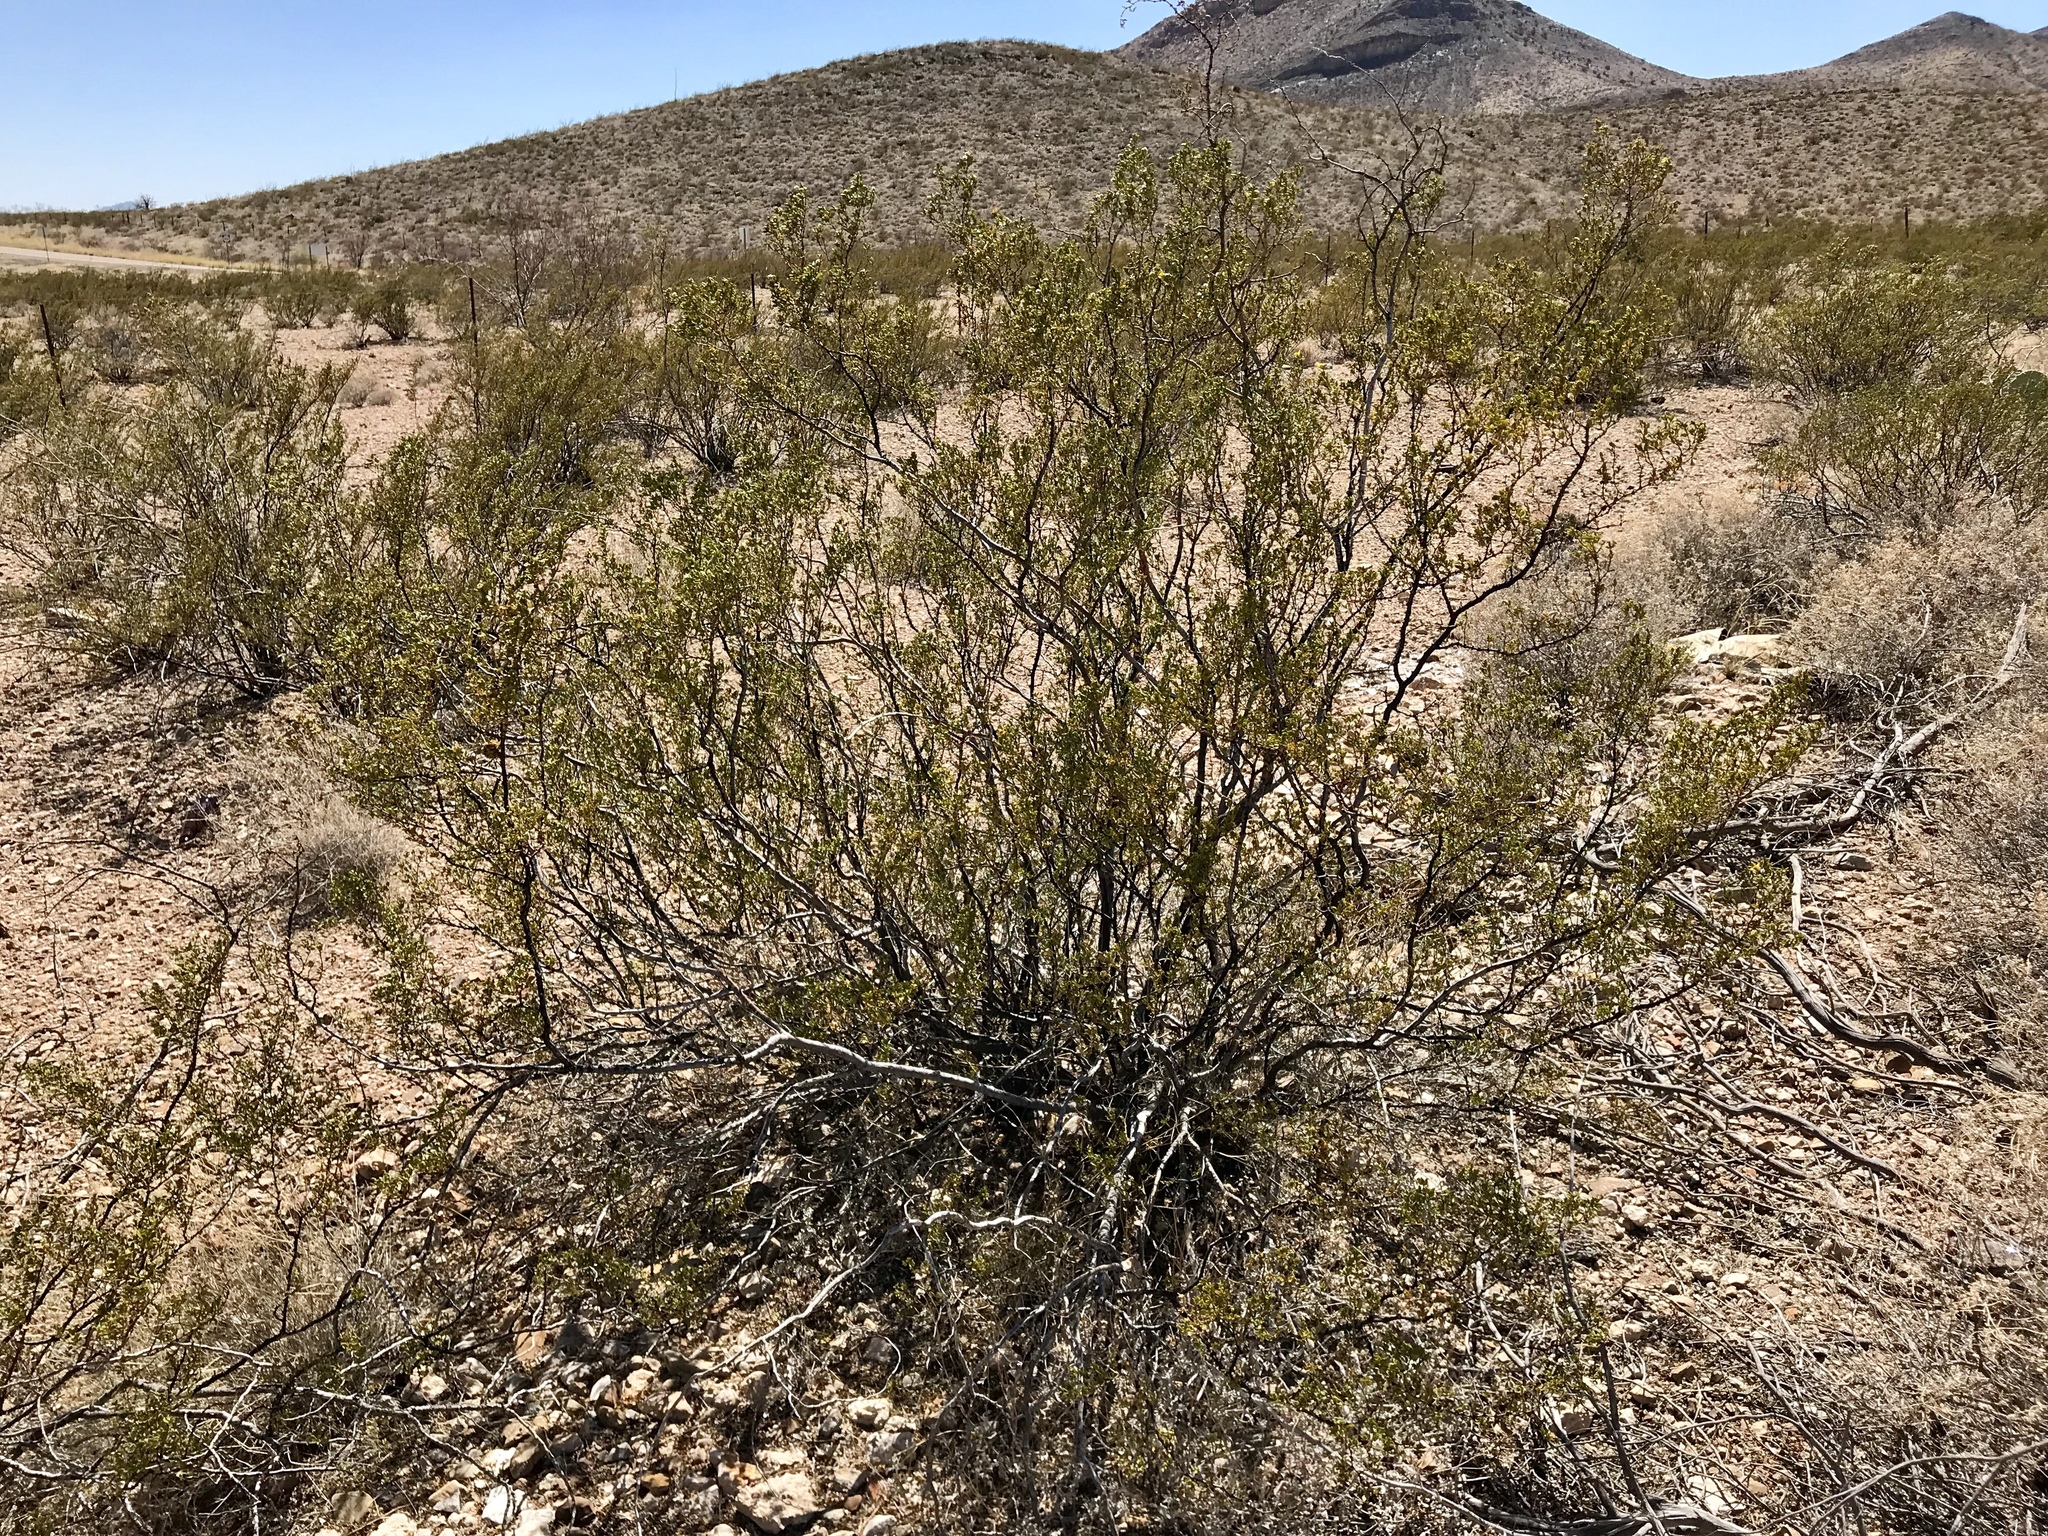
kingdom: Plantae
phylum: Tracheophyta
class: Magnoliopsida
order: Zygophyllales
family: Zygophyllaceae
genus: Larrea
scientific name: Larrea tridentata
